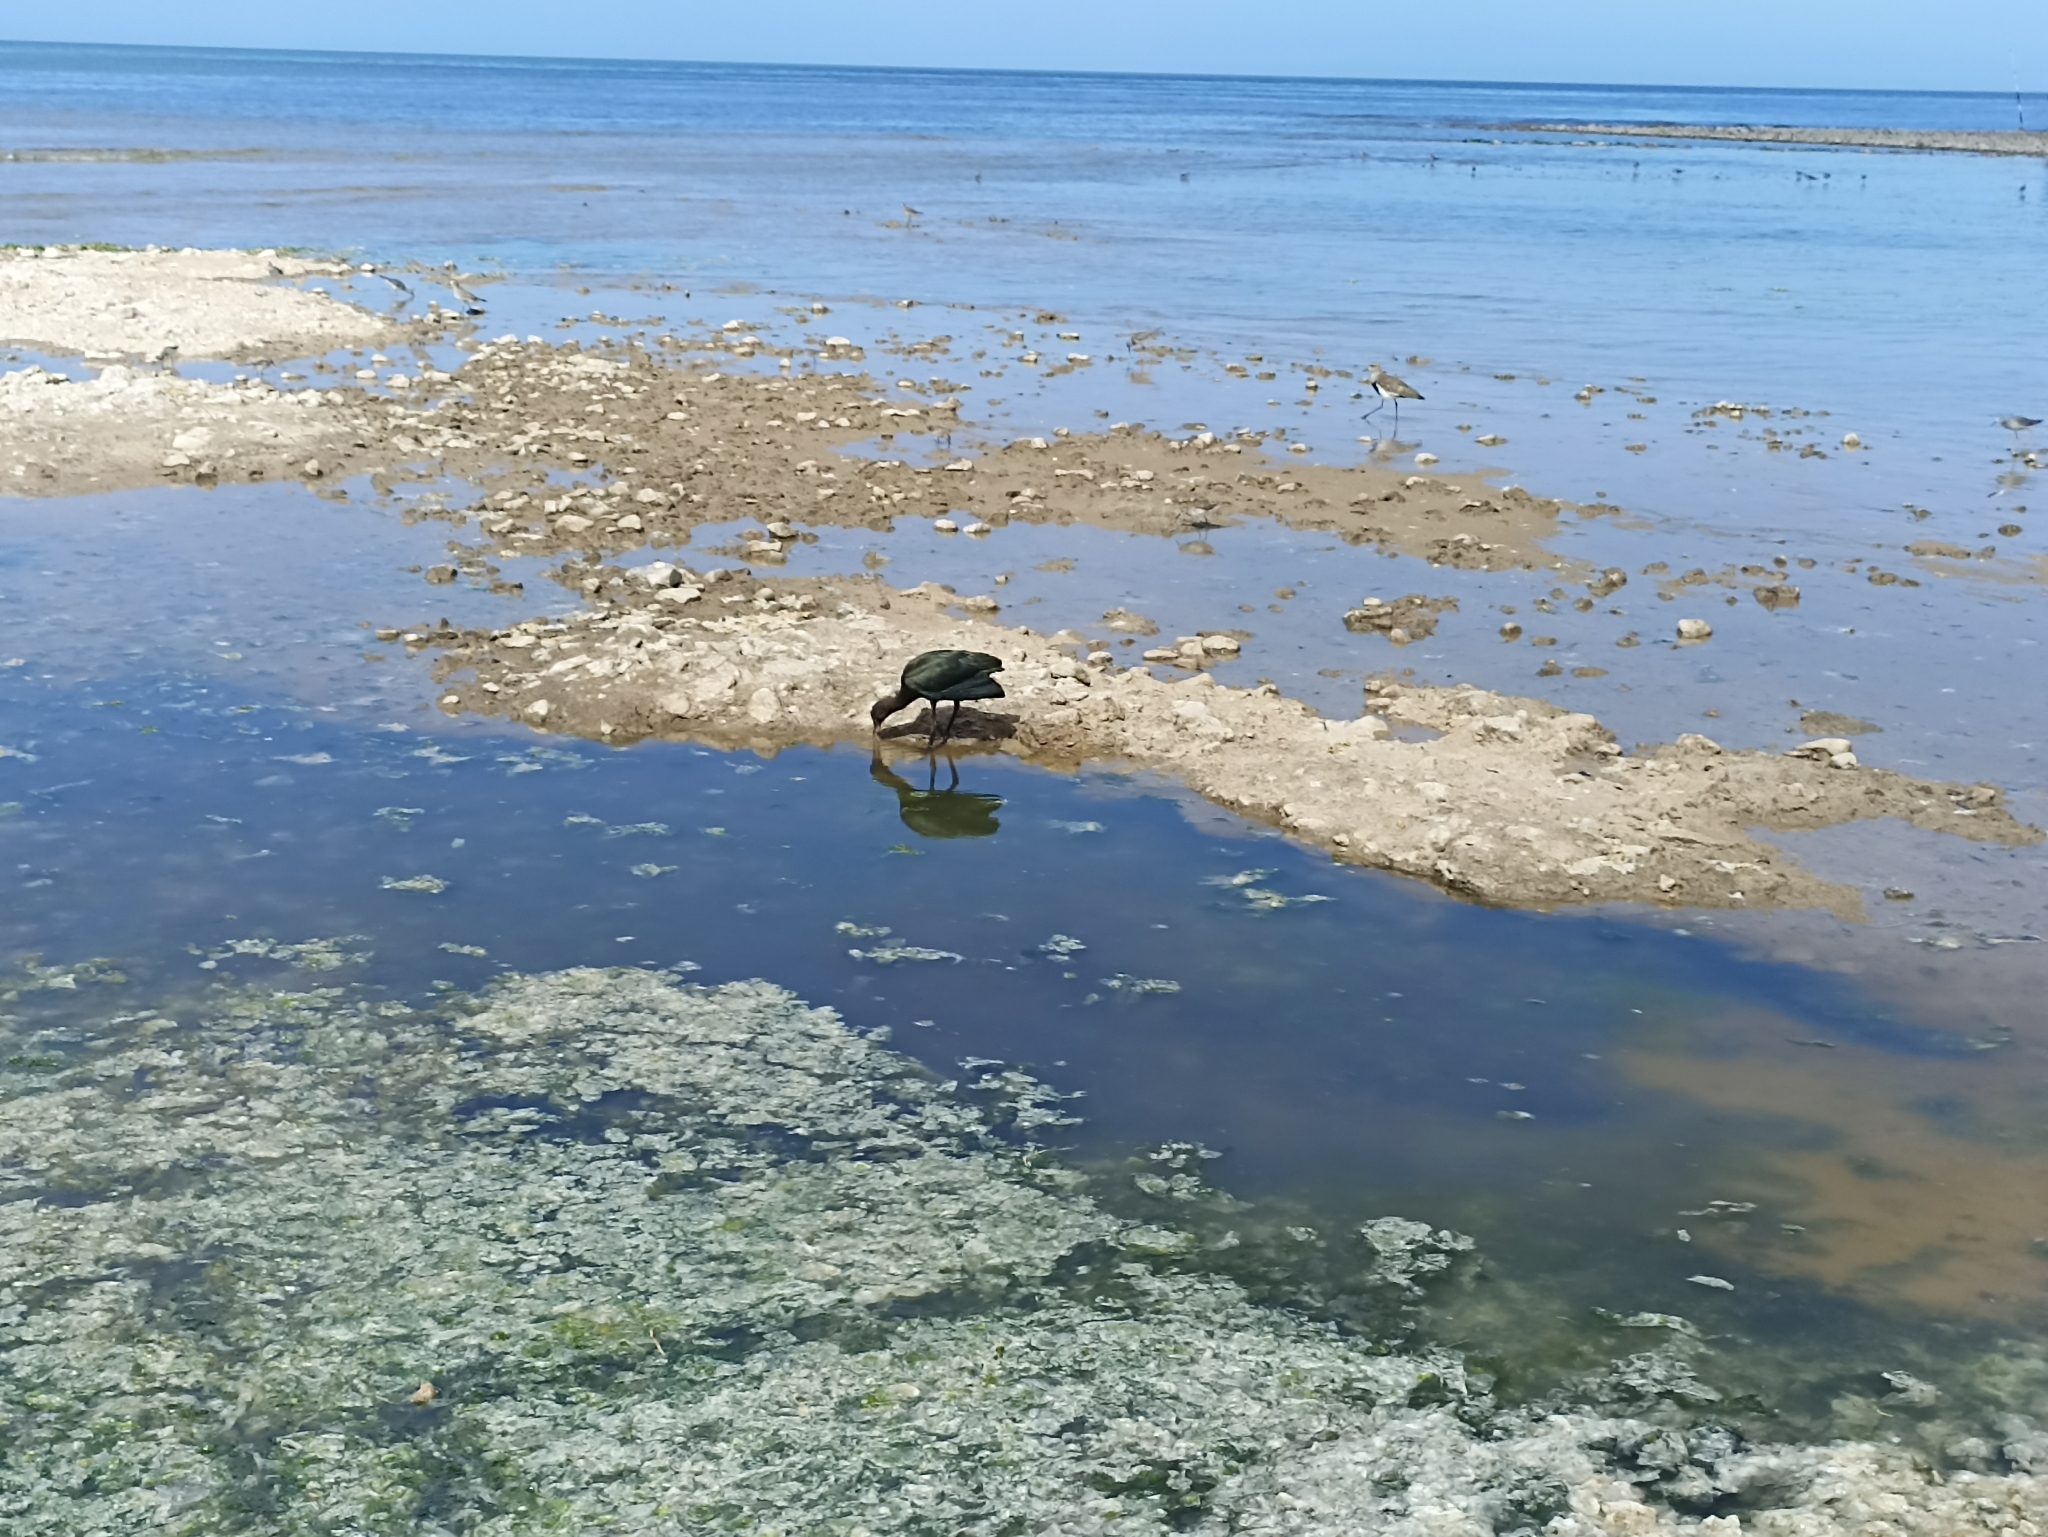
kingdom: Animalia
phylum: Chordata
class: Aves
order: Pelecaniformes
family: Threskiornithidae
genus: Plegadis
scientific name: Plegadis chihi
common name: White-faced ibis
